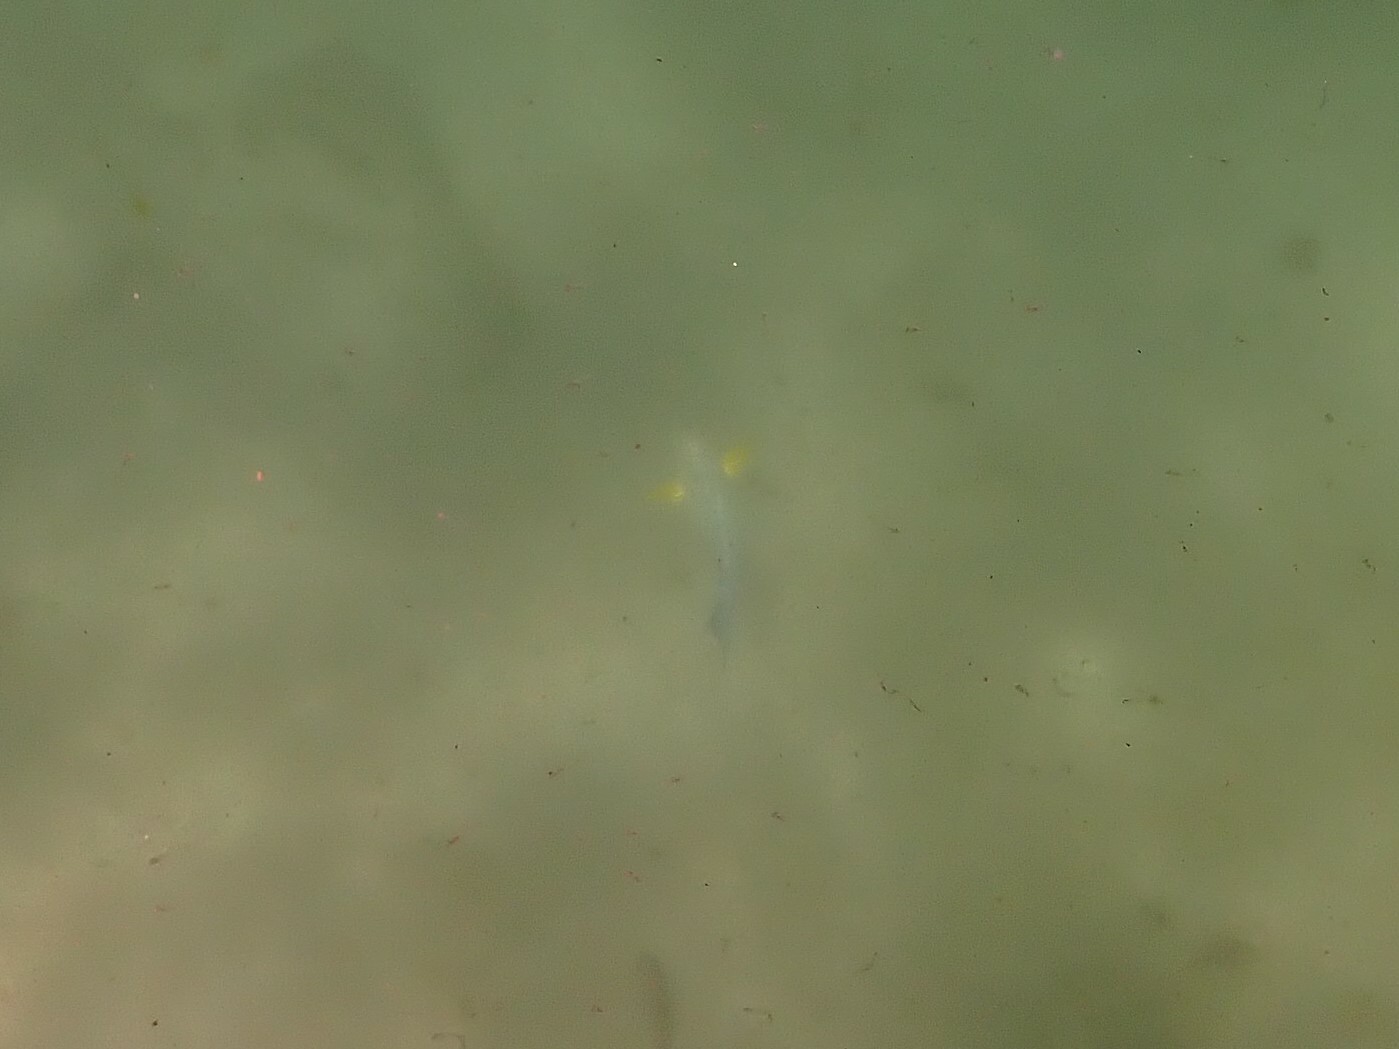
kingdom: Animalia
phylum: Chordata
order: Perciformes
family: Acanthuridae
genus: Acanthurus
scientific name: Acanthurus xanthopterus
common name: Cuvier's surgeonfish
